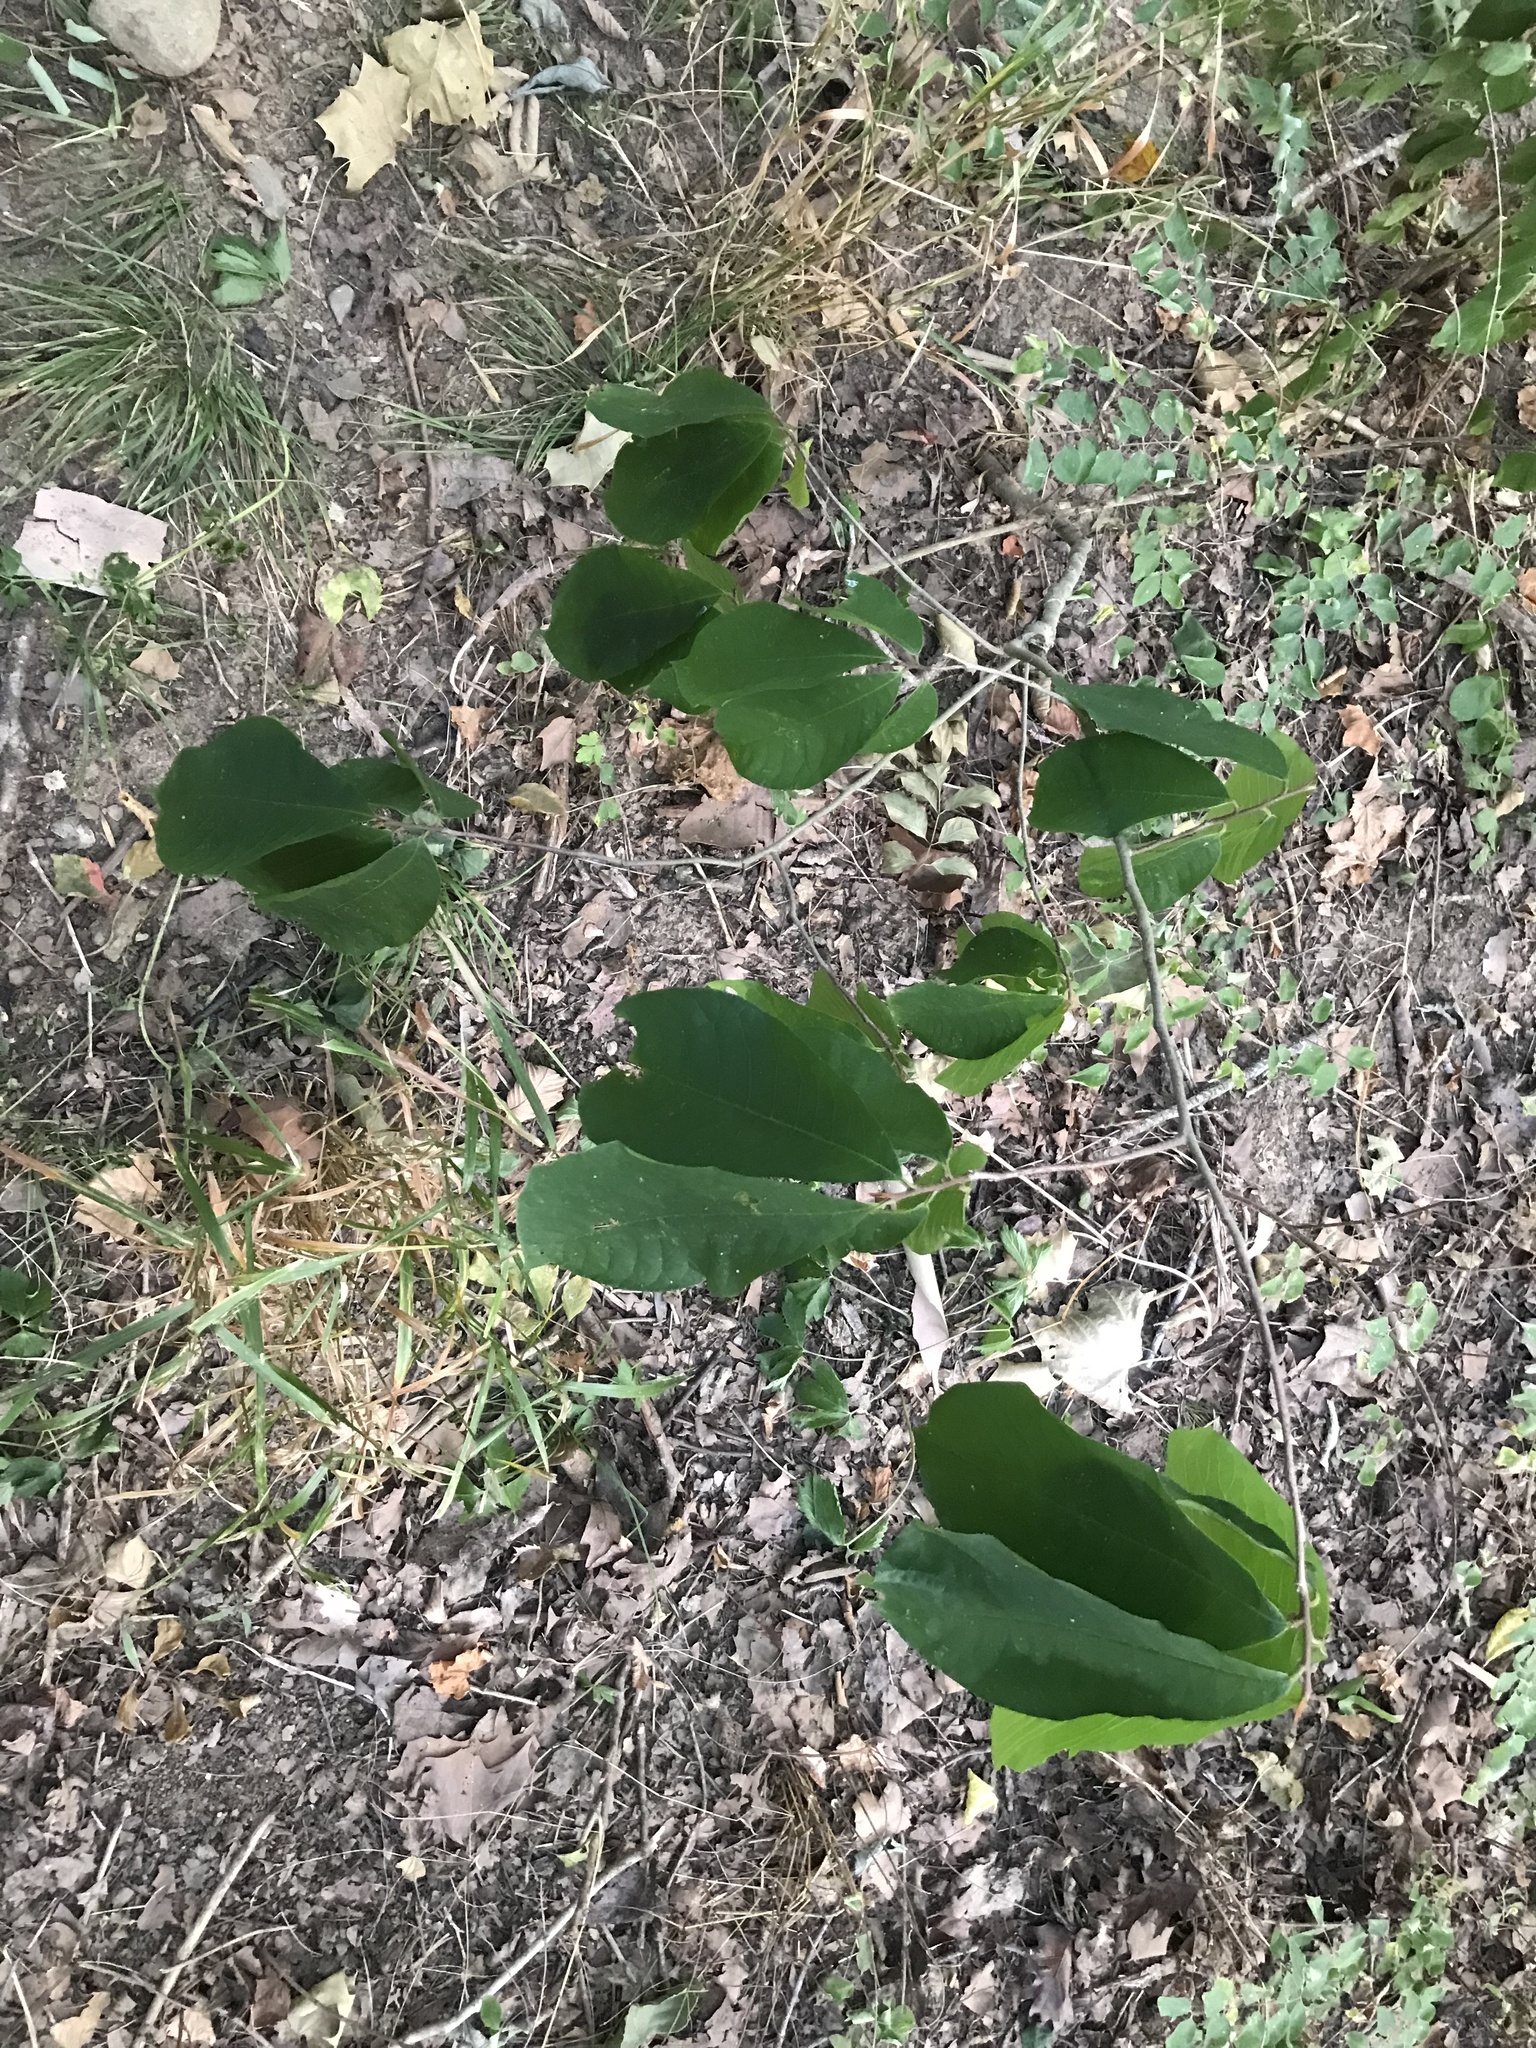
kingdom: Plantae
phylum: Tracheophyta
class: Magnoliopsida
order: Magnoliales
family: Annonaceae
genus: Asimina
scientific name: Asimina triloba
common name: Dog-banana
